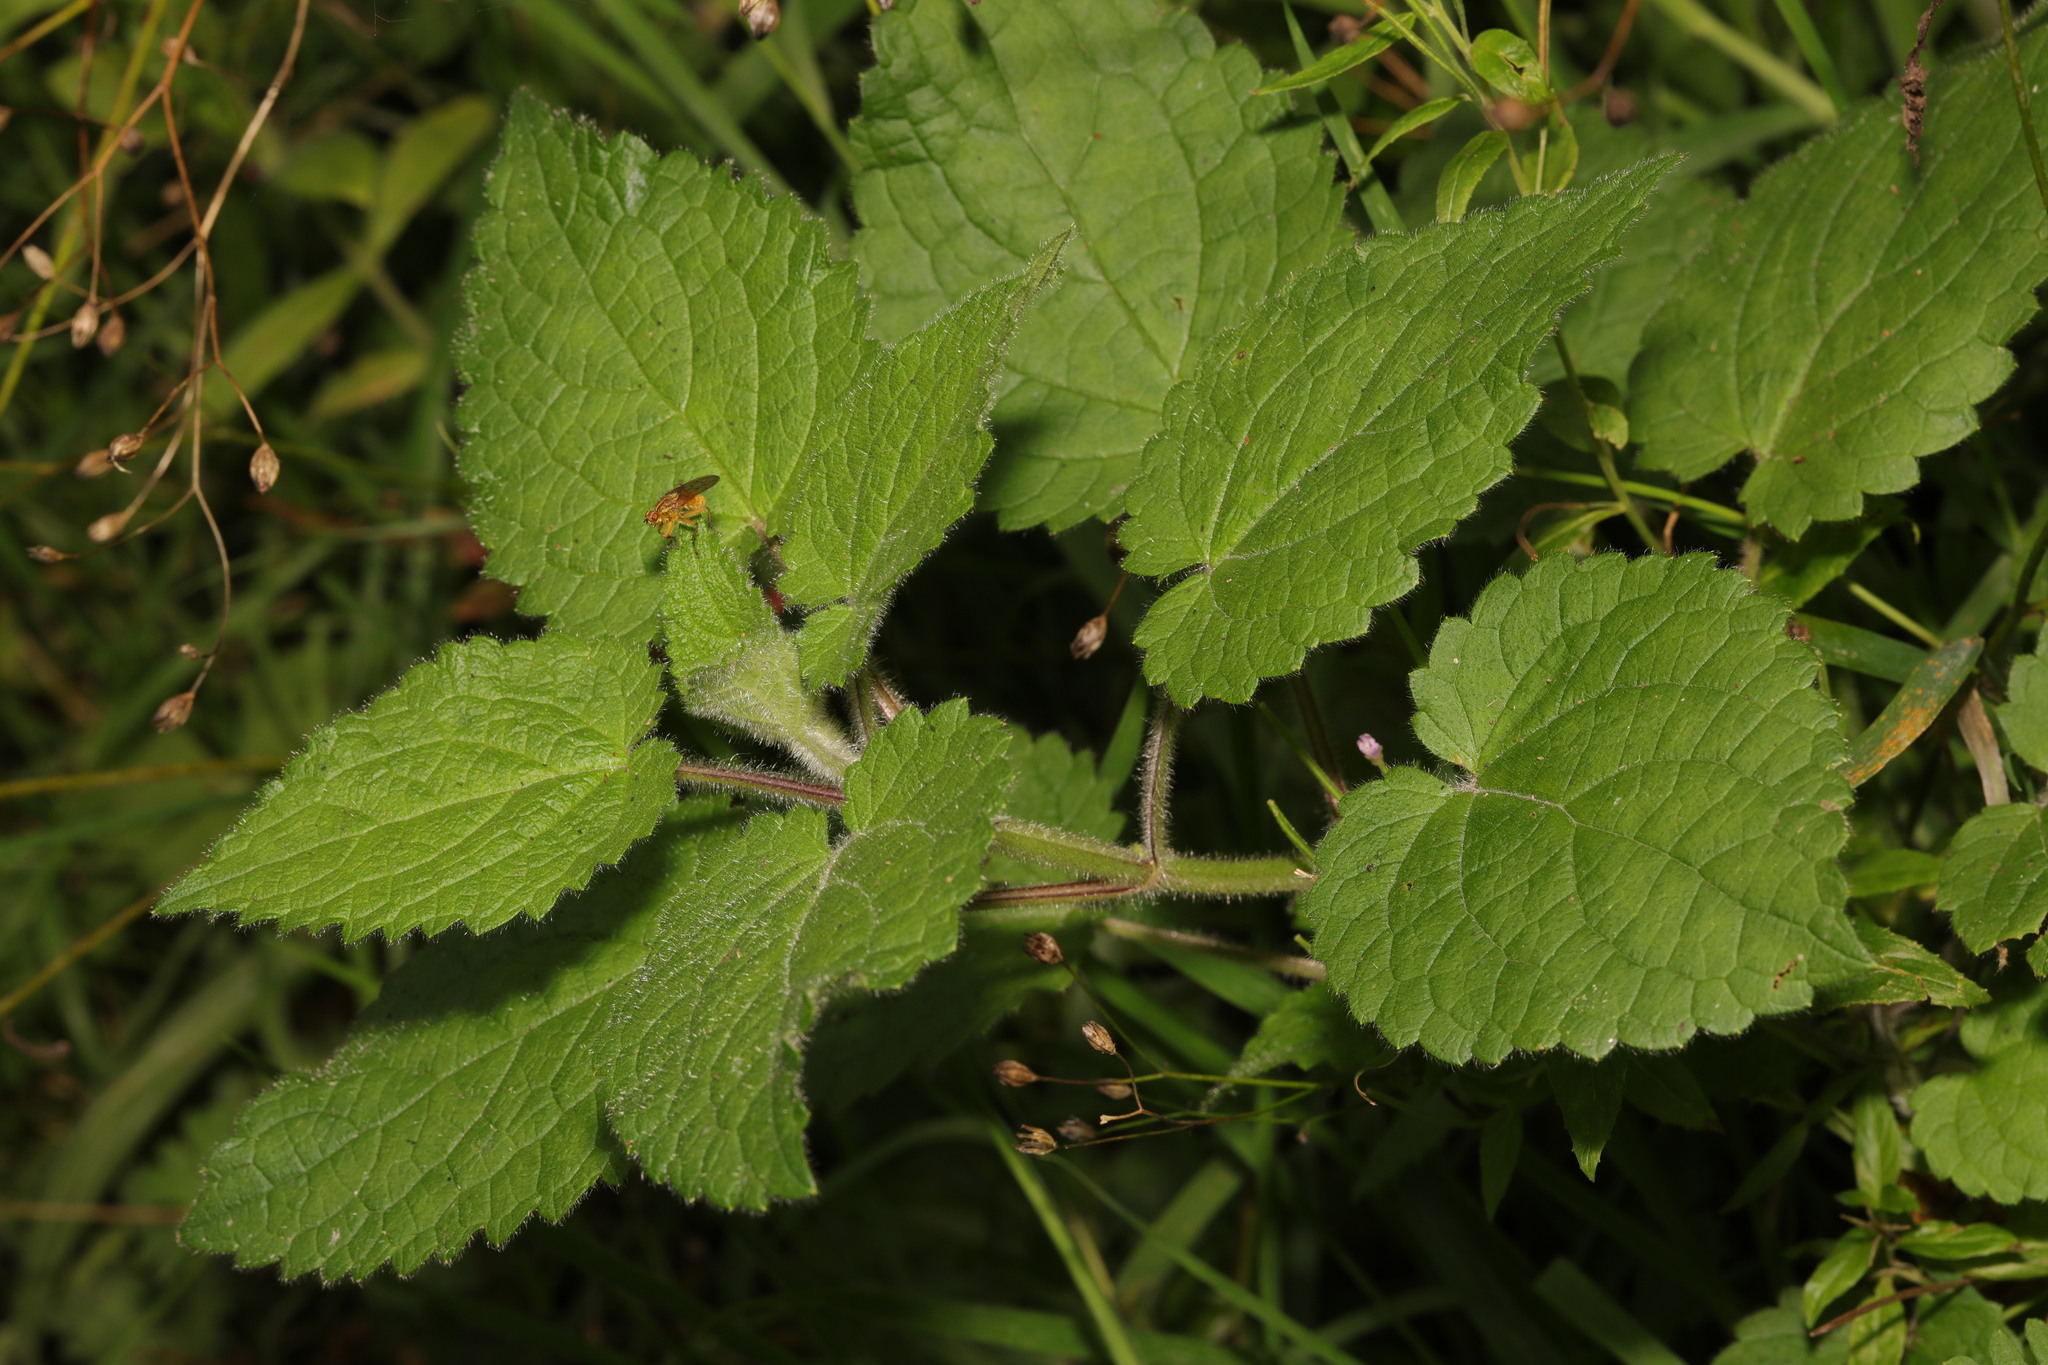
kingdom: Plantae
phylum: Tracheophyta
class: Magnoliopsida
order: Lamiales
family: Lamiaceae
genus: Stachys
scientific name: Stachys sylvatica
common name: Hedge woundwort
